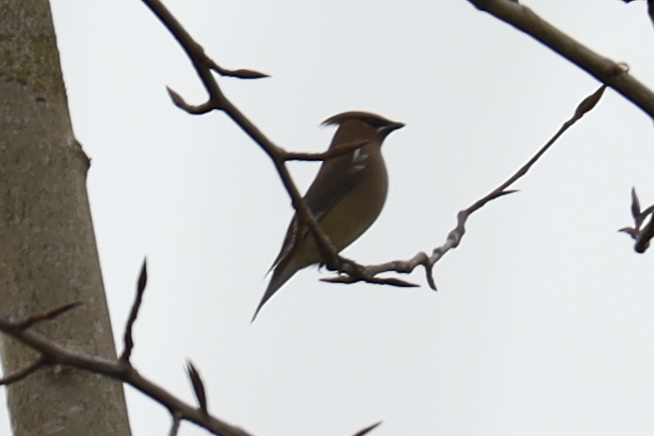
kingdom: Animalia
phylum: Chordata
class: Aves
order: Passeriformes
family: Bombycillidae
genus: Bombycilla
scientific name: Bombycilla cedrorum
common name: Cedar waxwing
